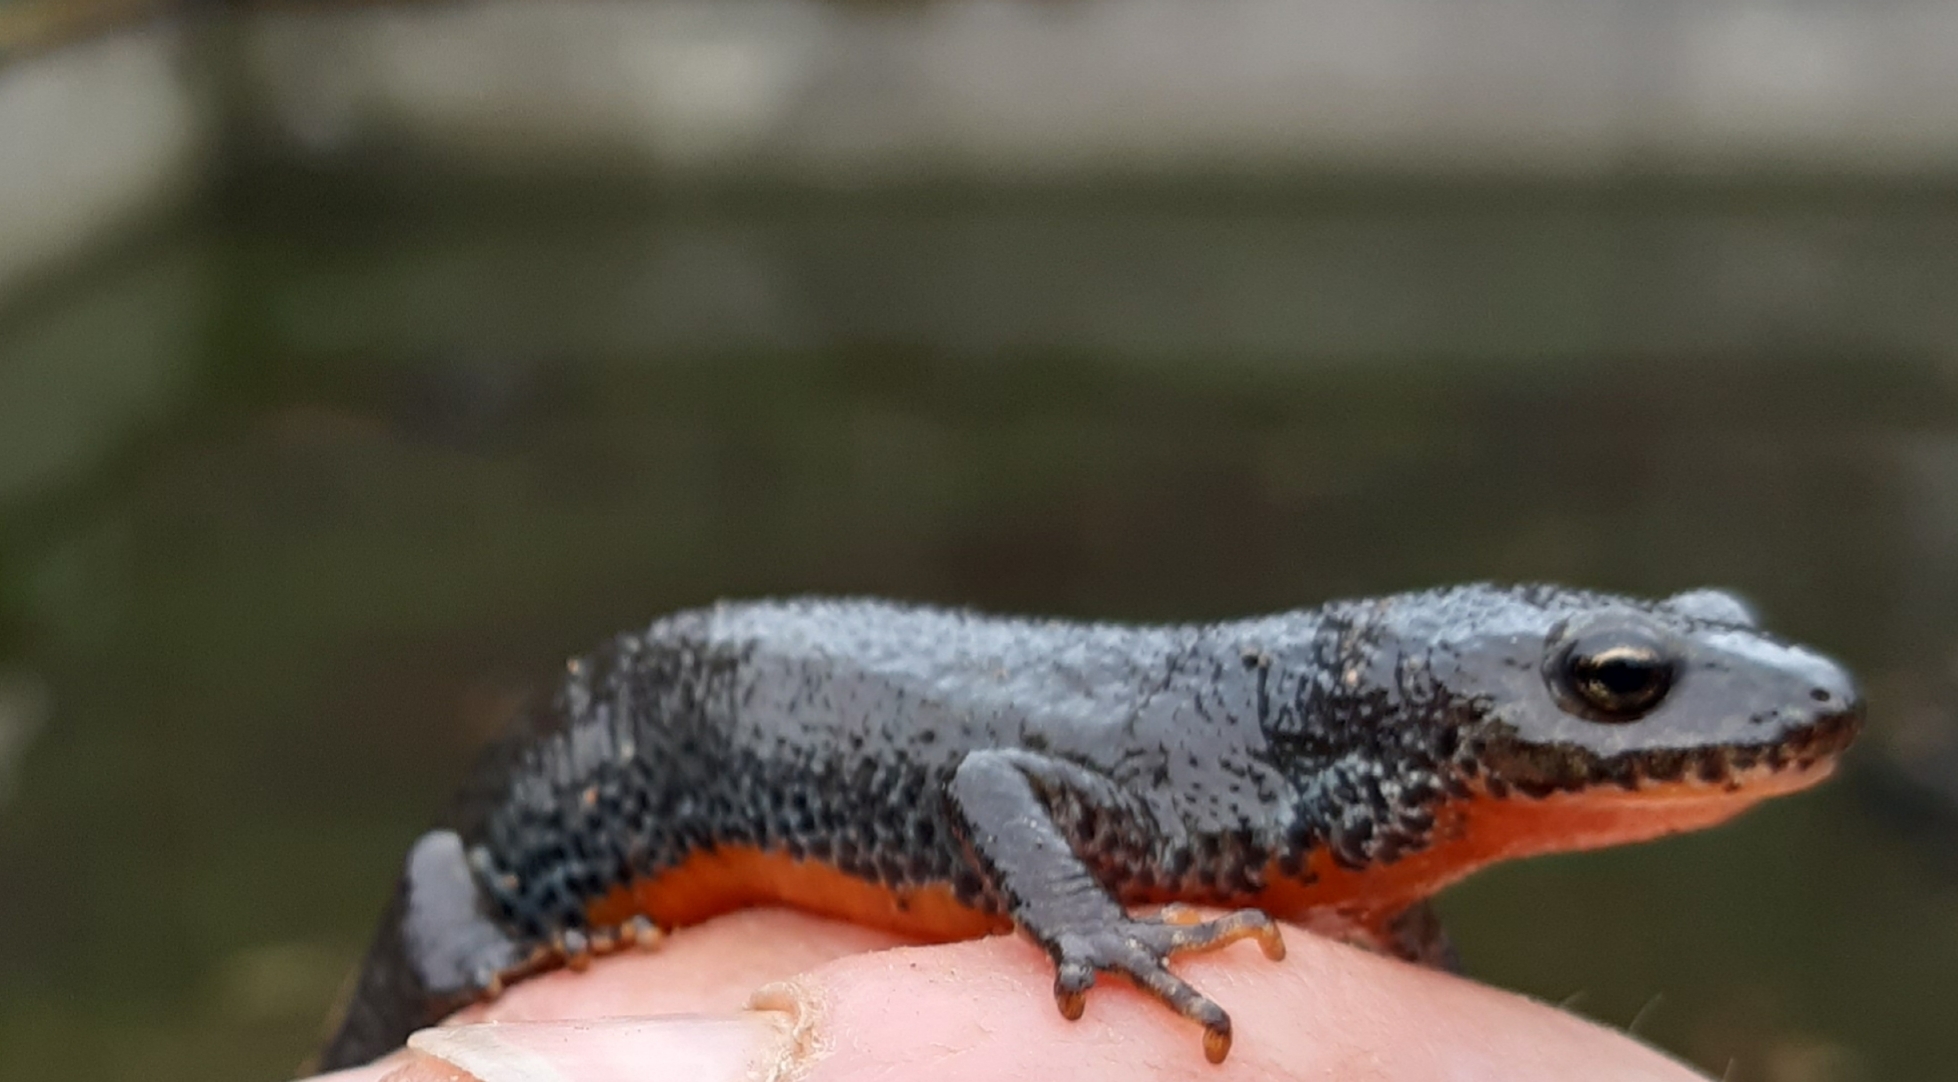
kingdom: Animalia
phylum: Chordata
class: Amphibia
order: Caudata
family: Salamandridae
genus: Ichthyosaura
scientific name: Ichthyosaura alpestris
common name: Alpine newt
